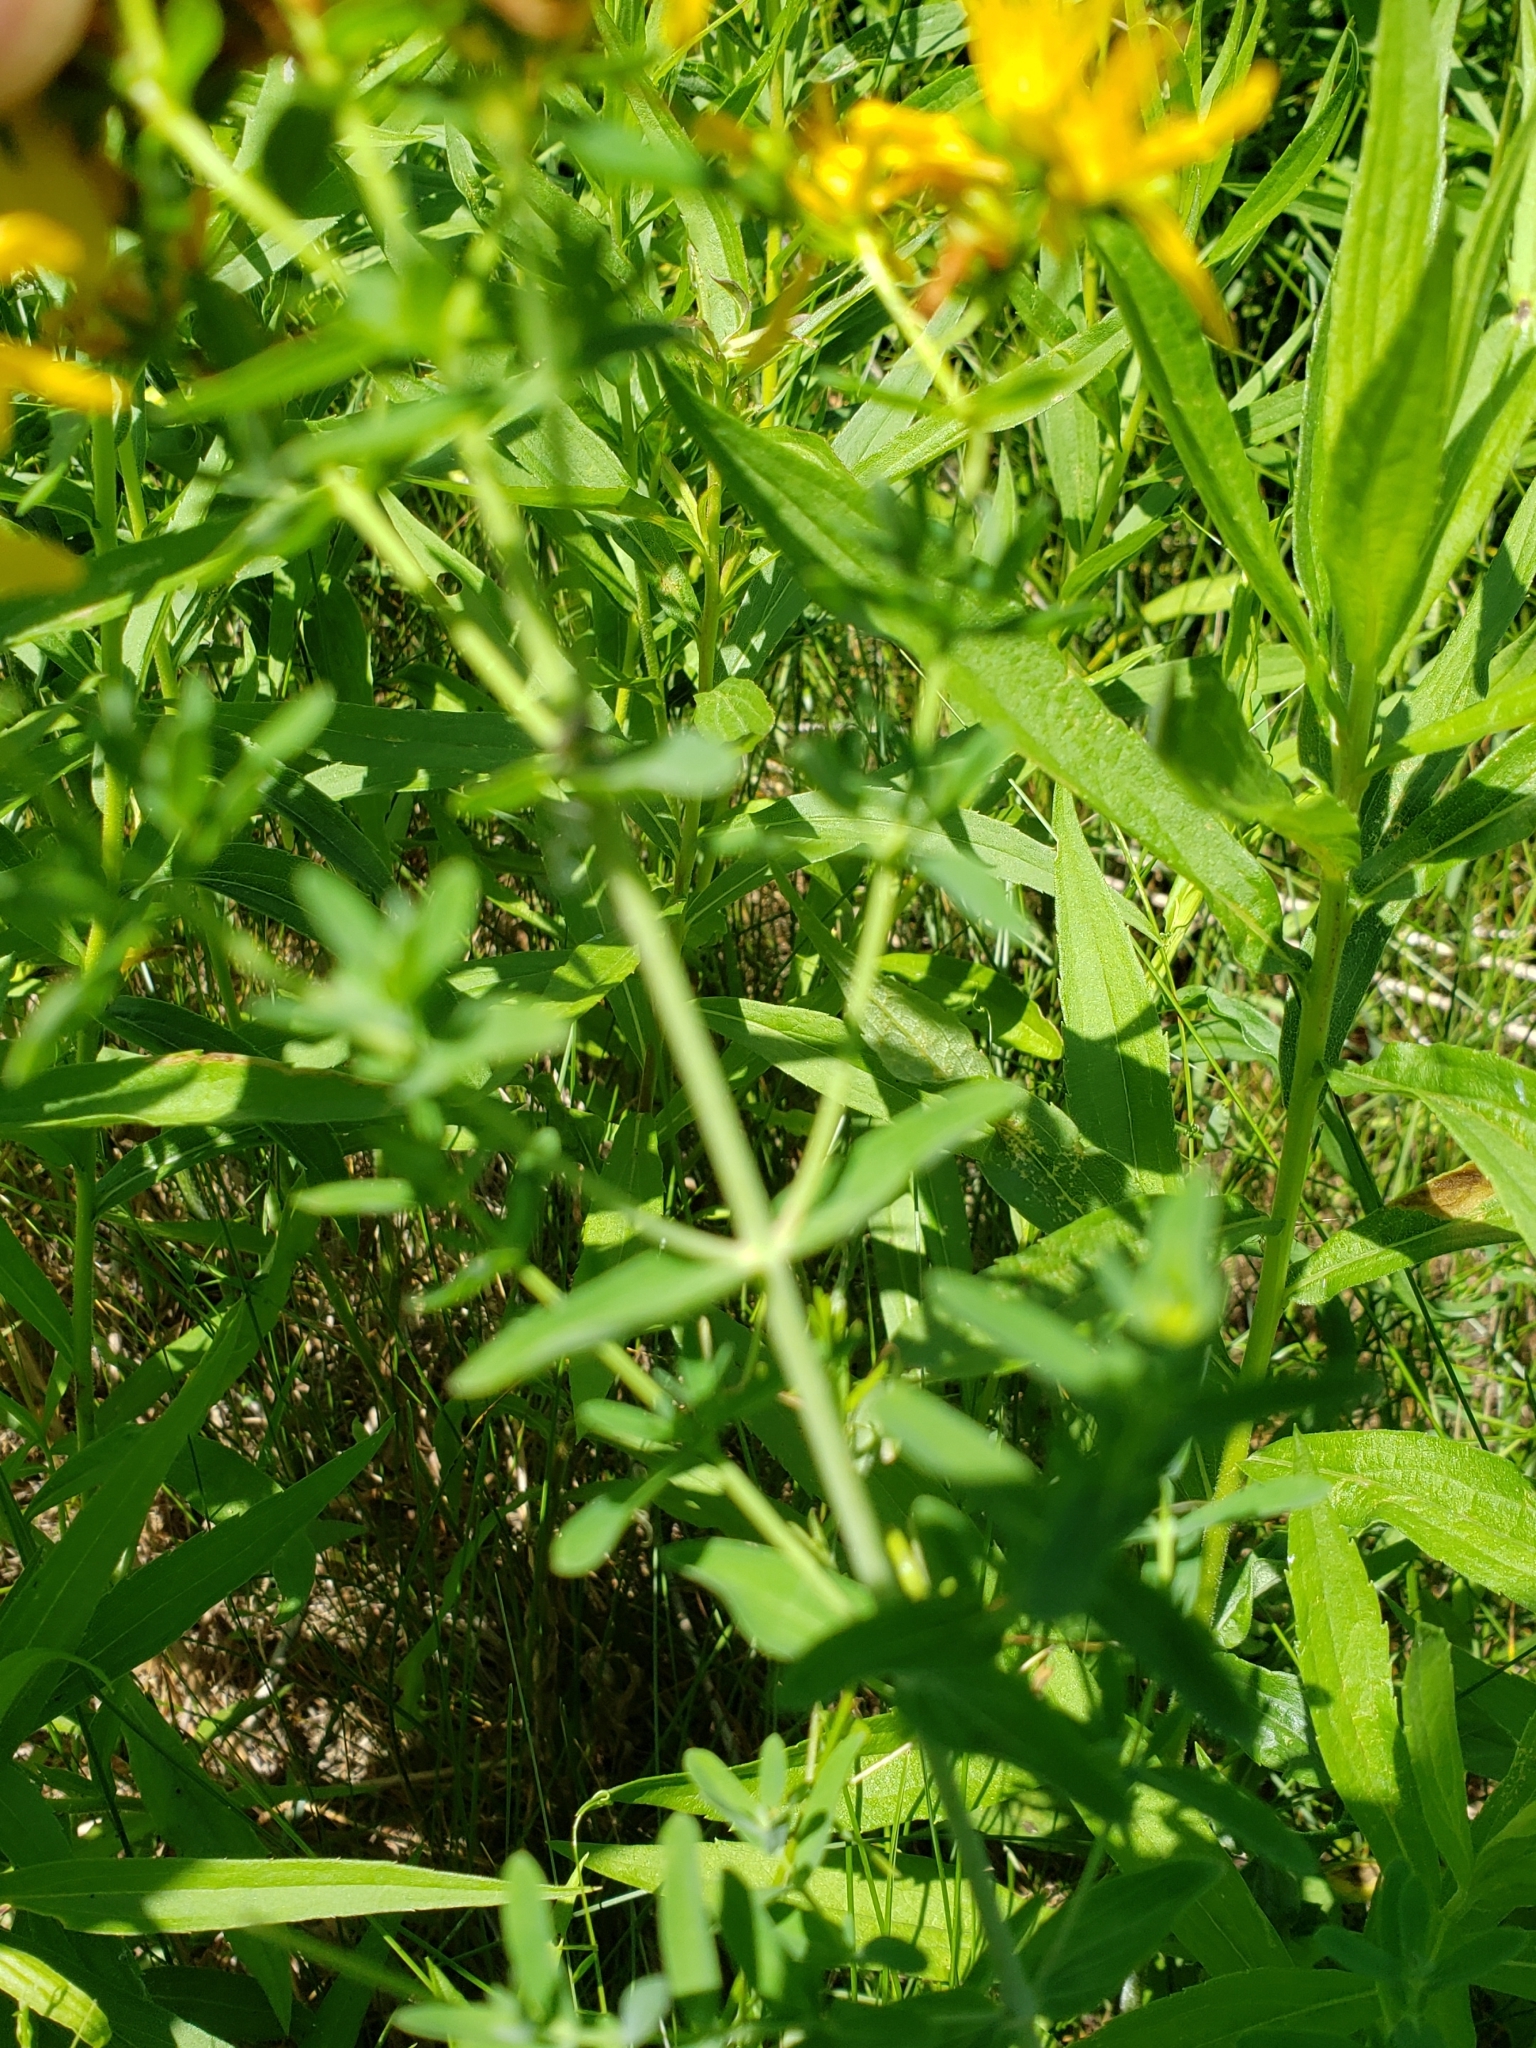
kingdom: Plantae
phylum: Tracheophyta
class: Magnoliopsida
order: Malpighiales
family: Hypericaceae
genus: Hypericum
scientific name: Hypericum perforatum
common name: Common st. johnswort
